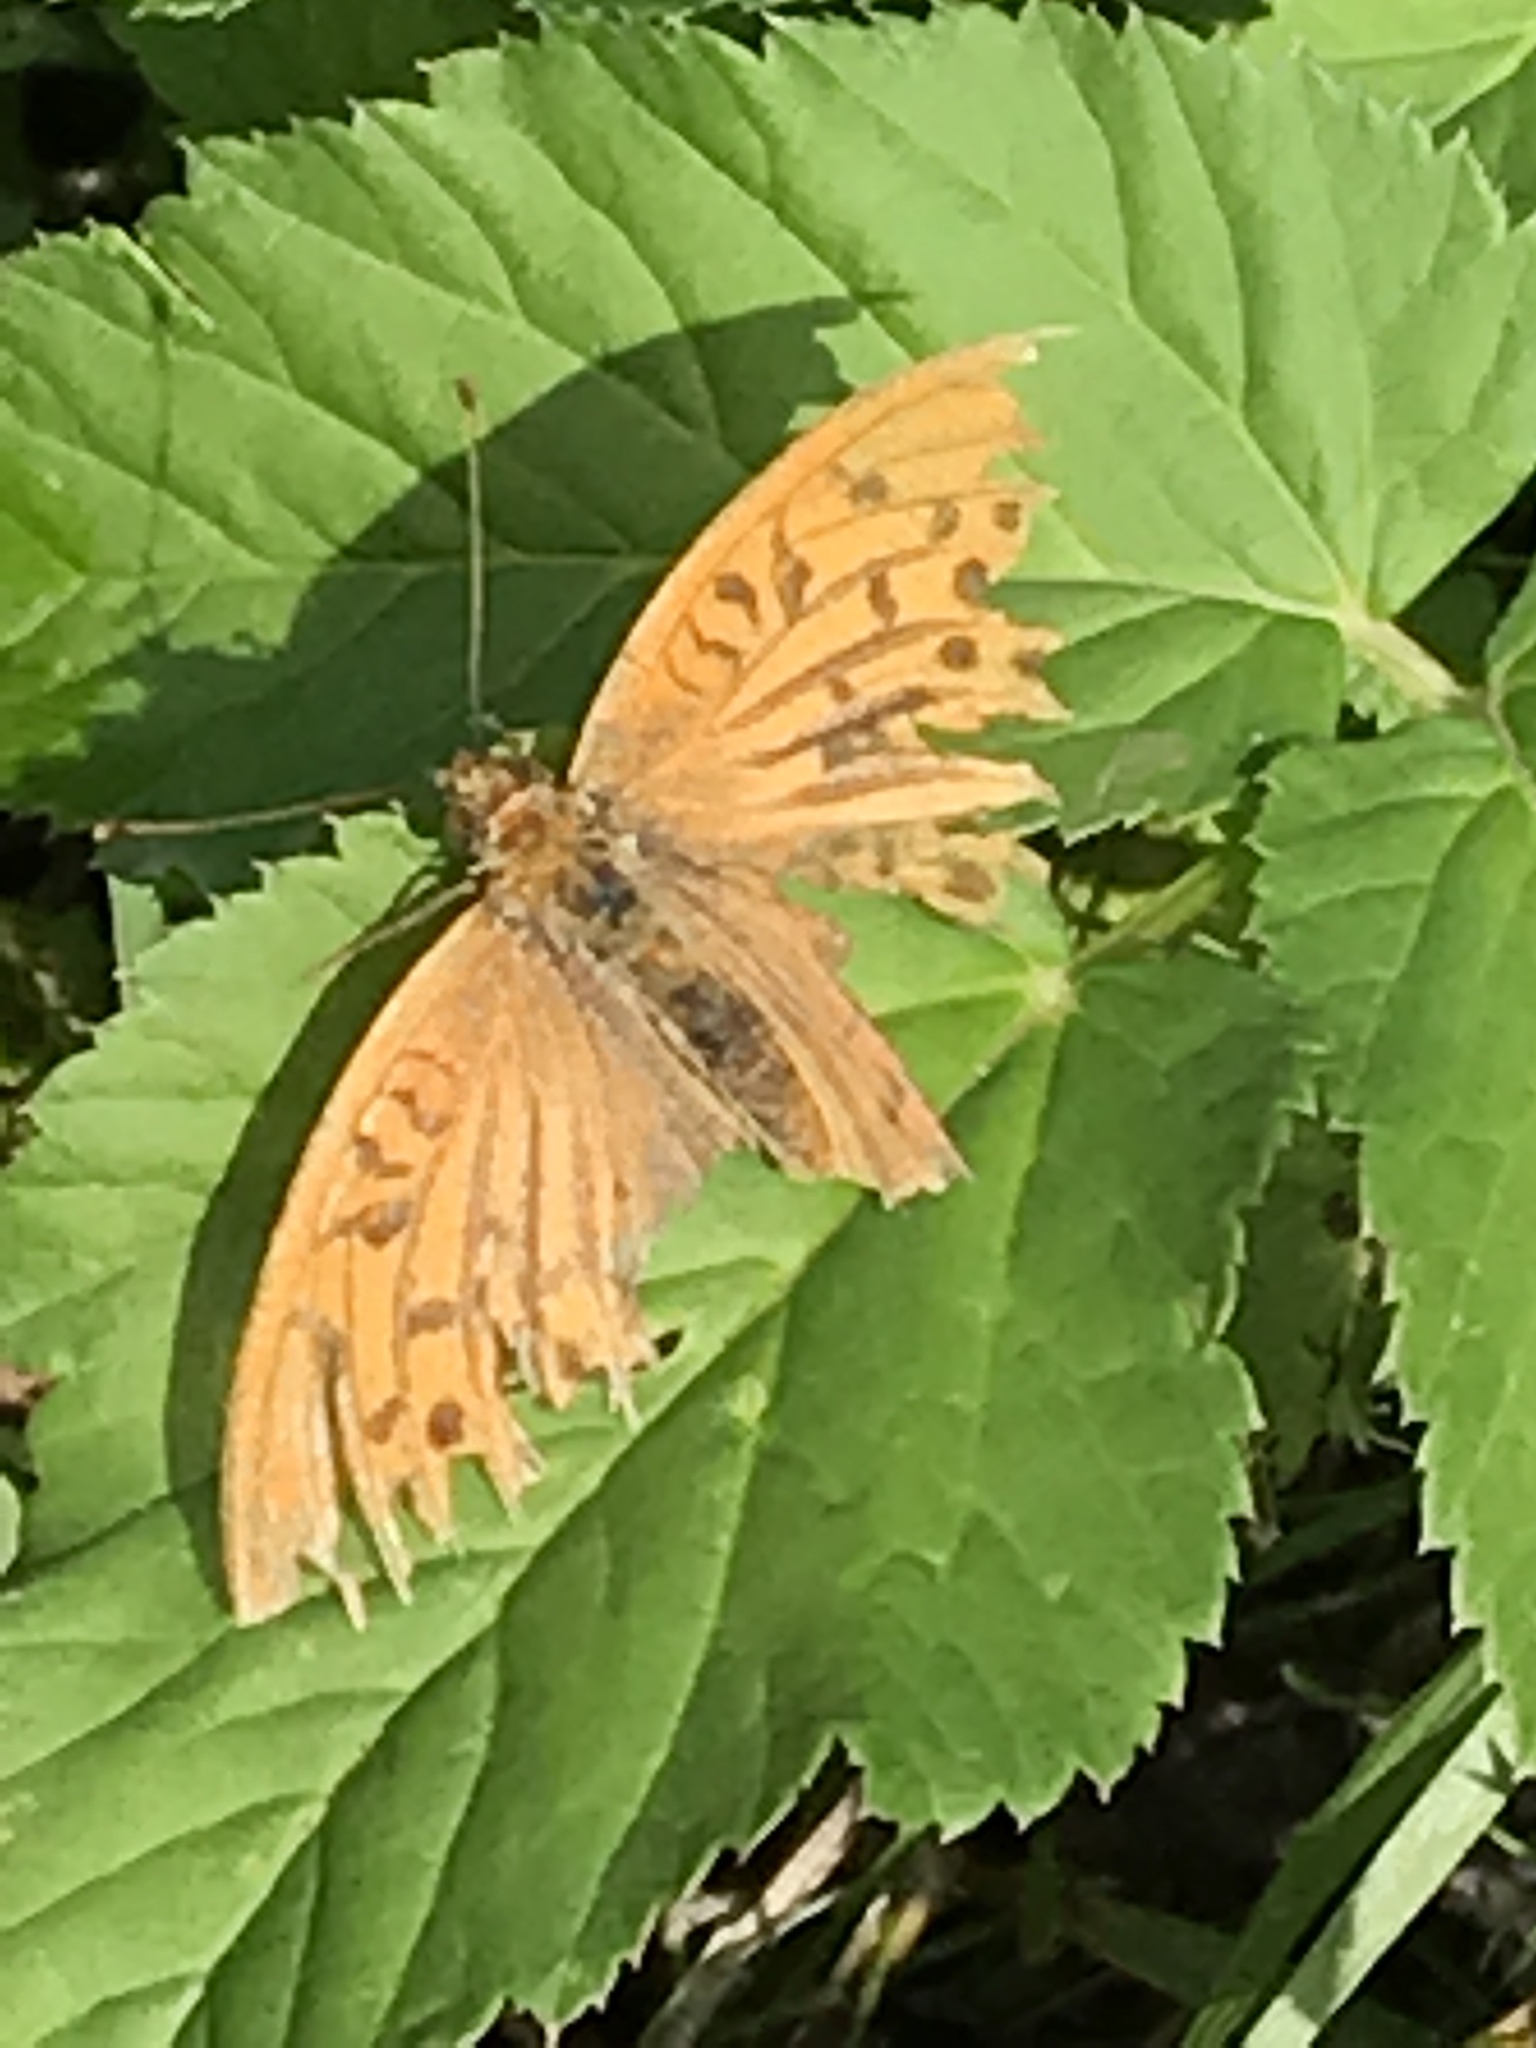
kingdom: Animalia
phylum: Arthropoda
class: Insecta
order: Lepidoptera
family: Nymphalidae
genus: Argynnis
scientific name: Argynnis paphia
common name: Silver-washed fritillary
